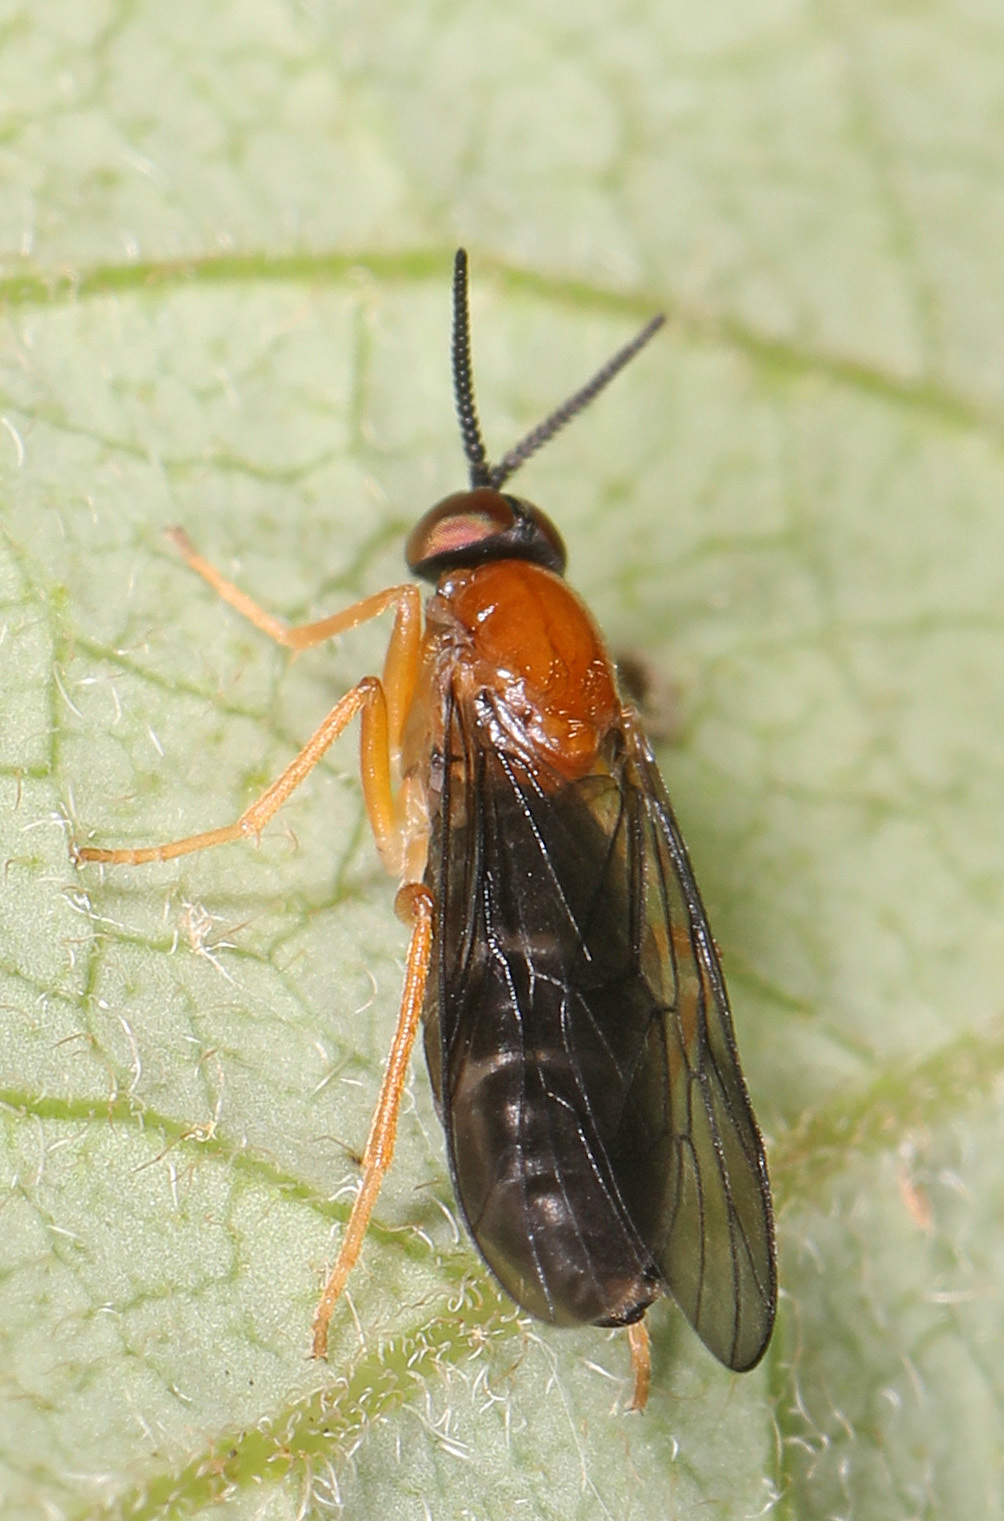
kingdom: Animalia
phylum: Arthropoda
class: Insecta
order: Diptera
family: Xylophagidae
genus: Rachicerus
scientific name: Rachicerus fulvicollis
